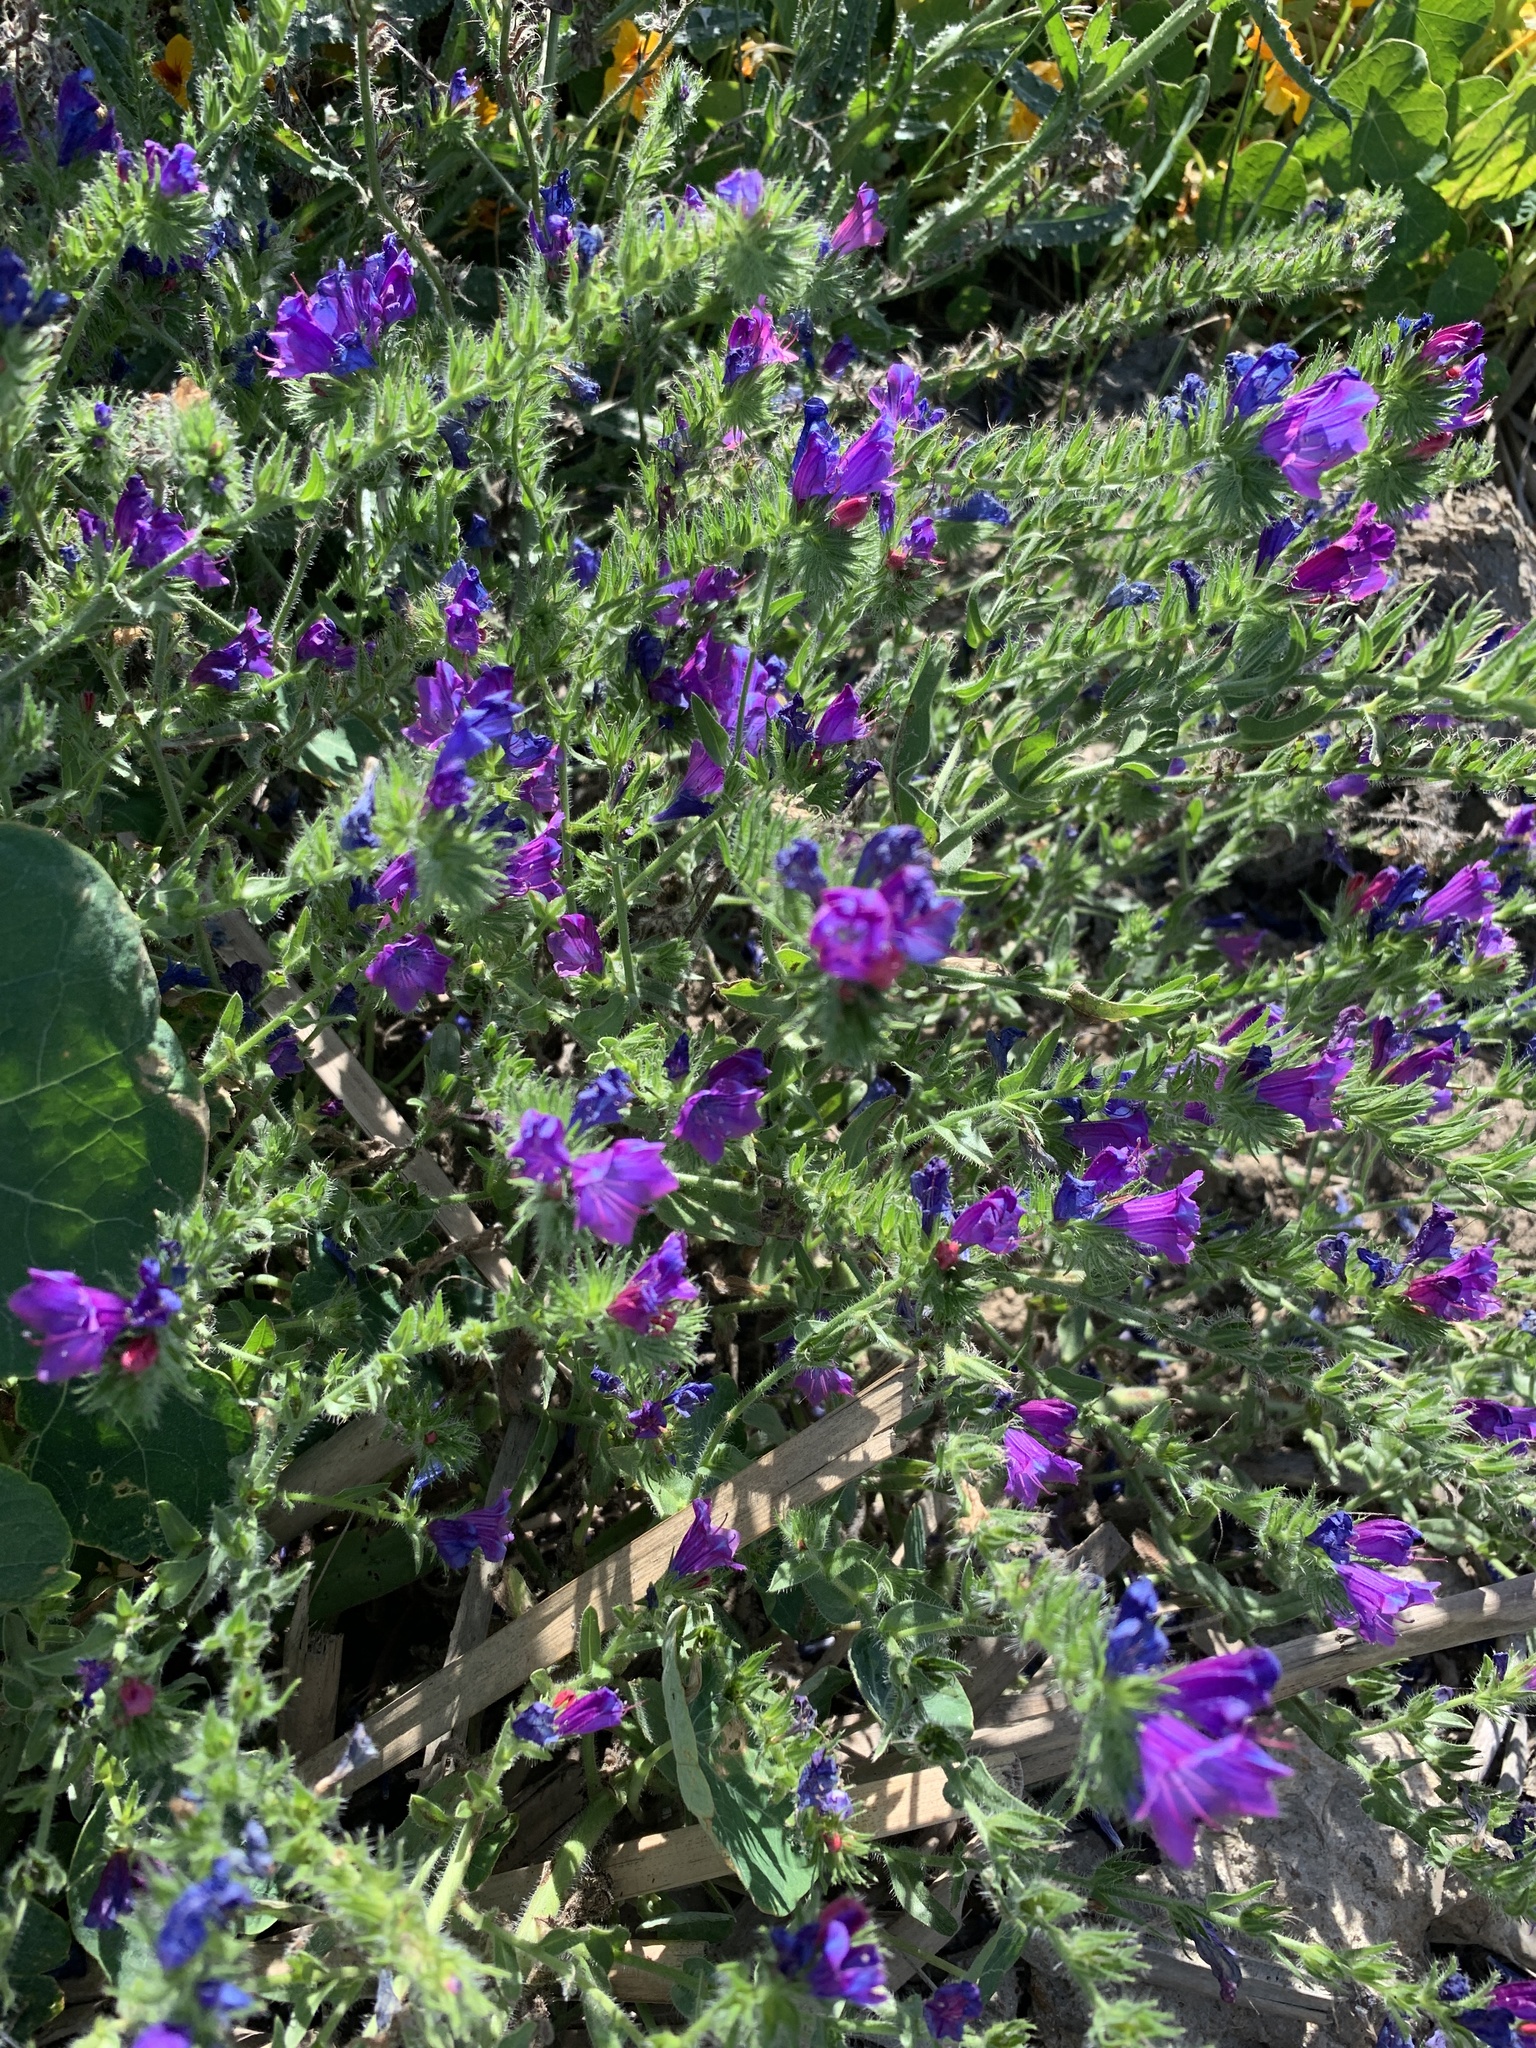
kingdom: Plantae
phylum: Tracheophyta
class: Magnoliopsida
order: Boraginales
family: Boraginaceae
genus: Echium
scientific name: Echium plantagineum
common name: Purple viper's-bugloss
